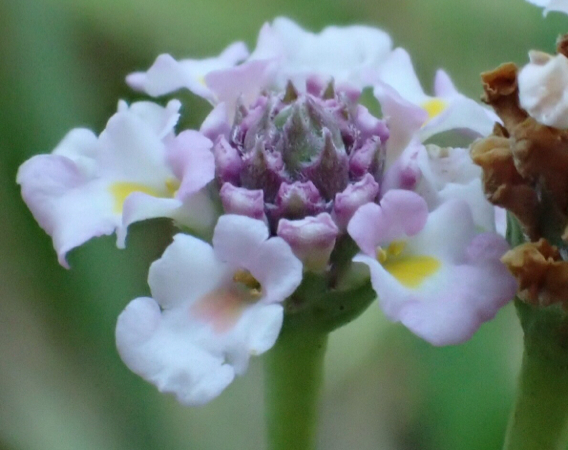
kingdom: Plantae
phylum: Tracheophyta
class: Magnoliopsida
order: Lamiales
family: Verbenaceae
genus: Phyla
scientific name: Phyla nodiflora
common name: Frogfruit
